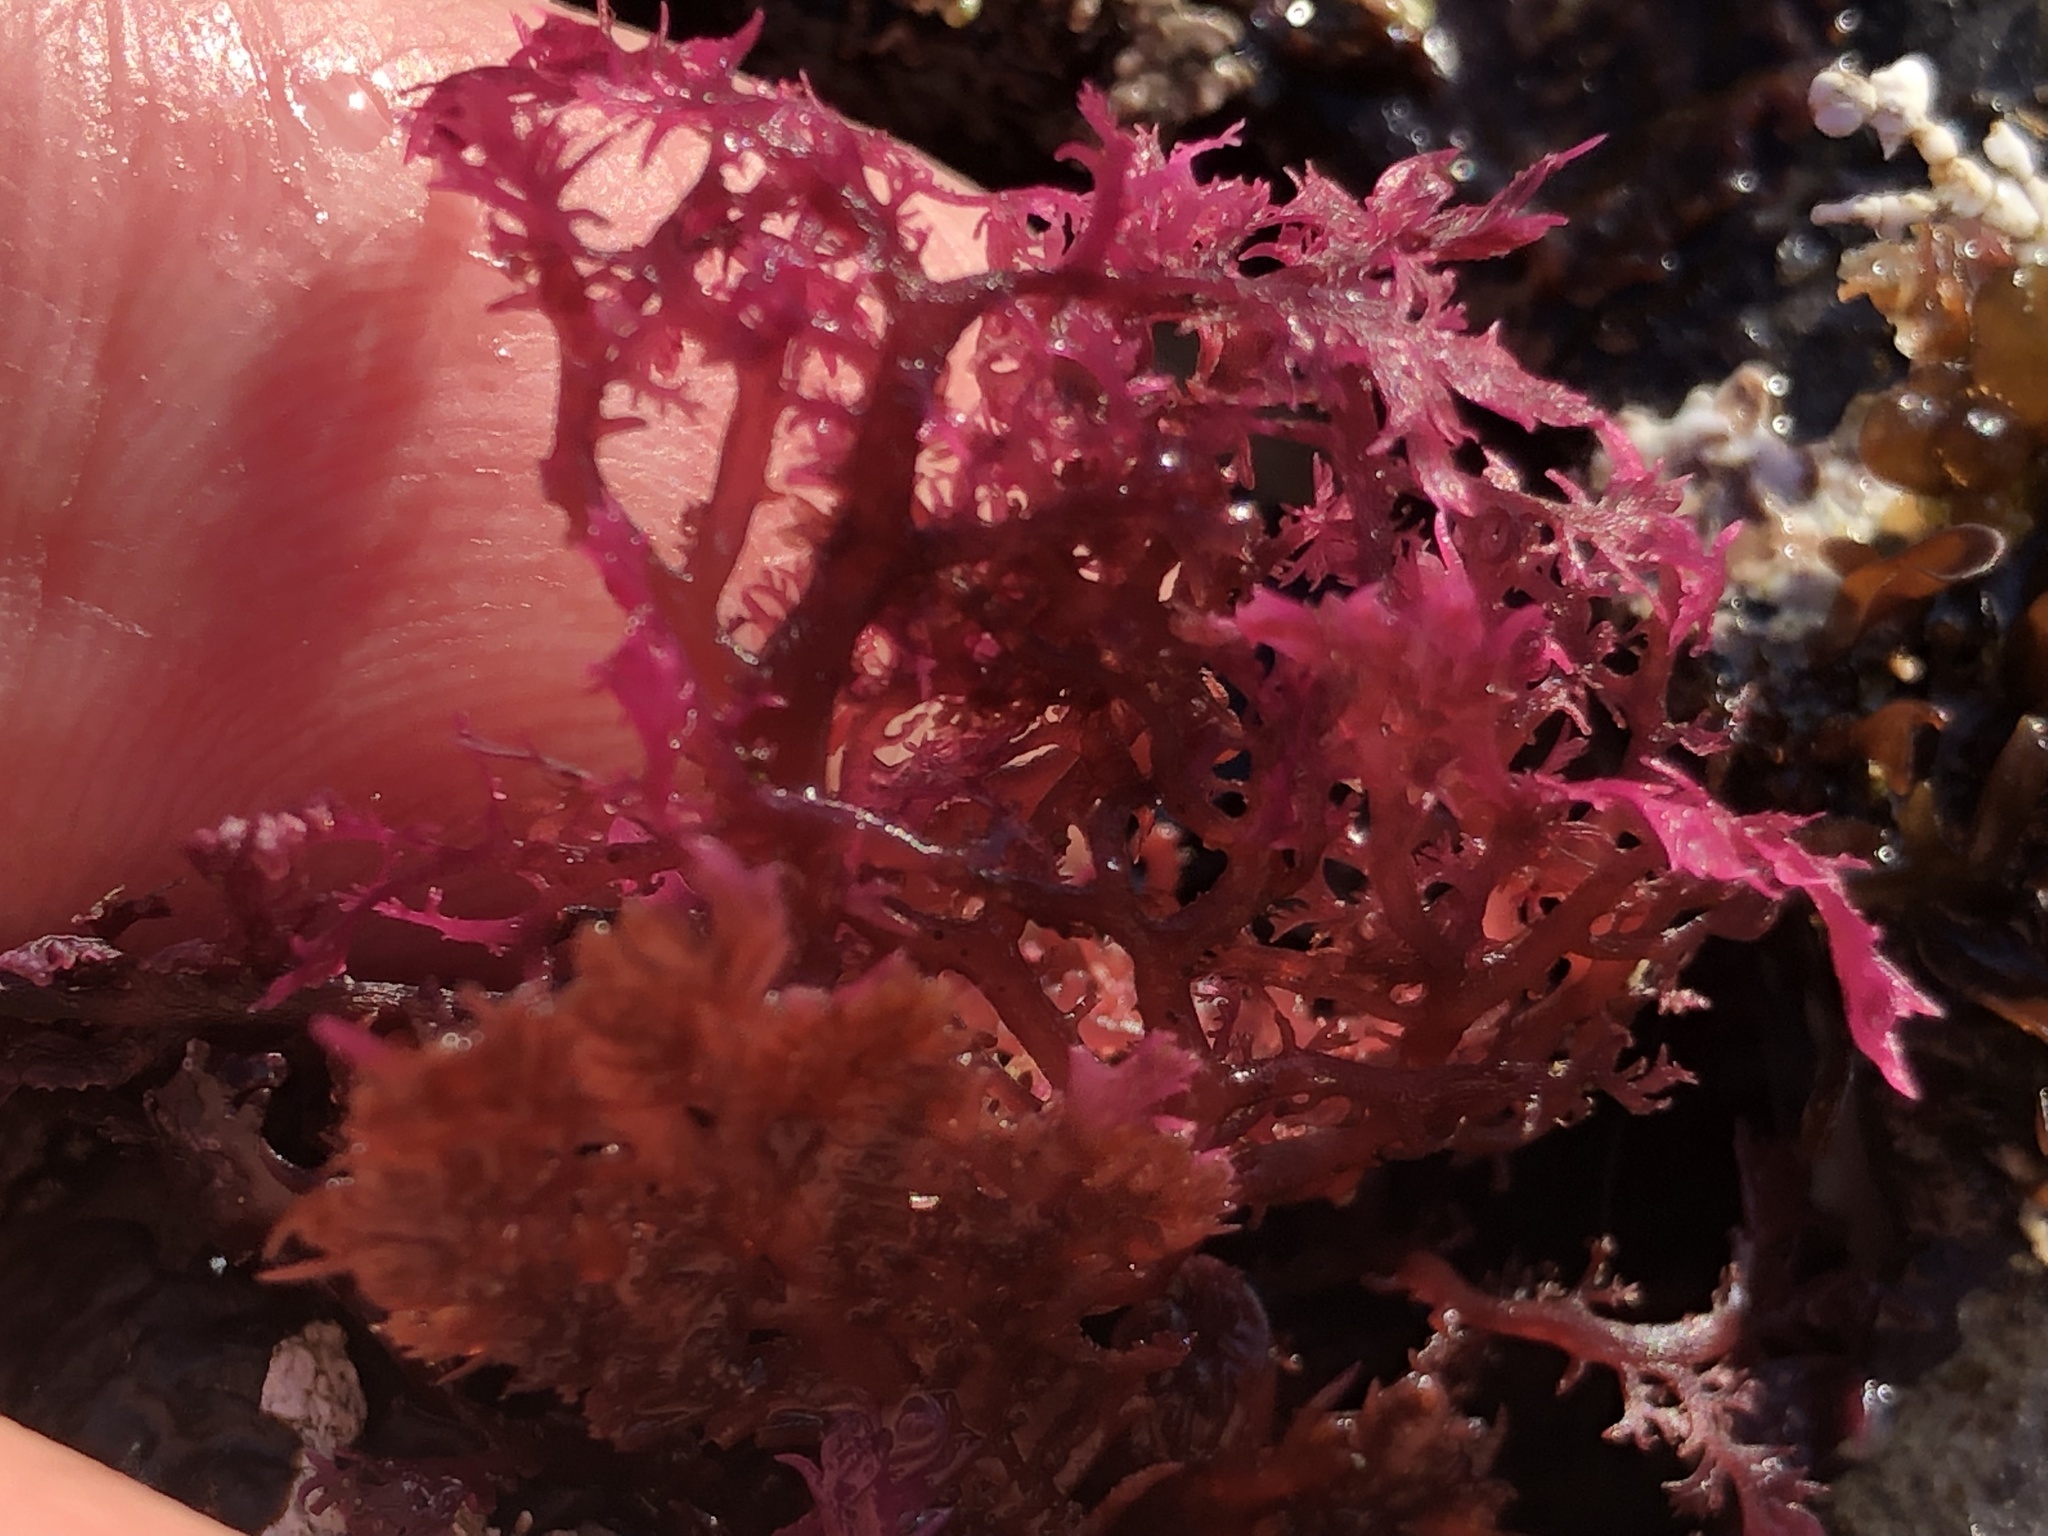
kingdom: Plantae
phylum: Rhodophyta
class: Florideophyceae
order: Plocamiales
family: Plocamiaceae
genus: Plocamium
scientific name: Plocamium cartilagineum
